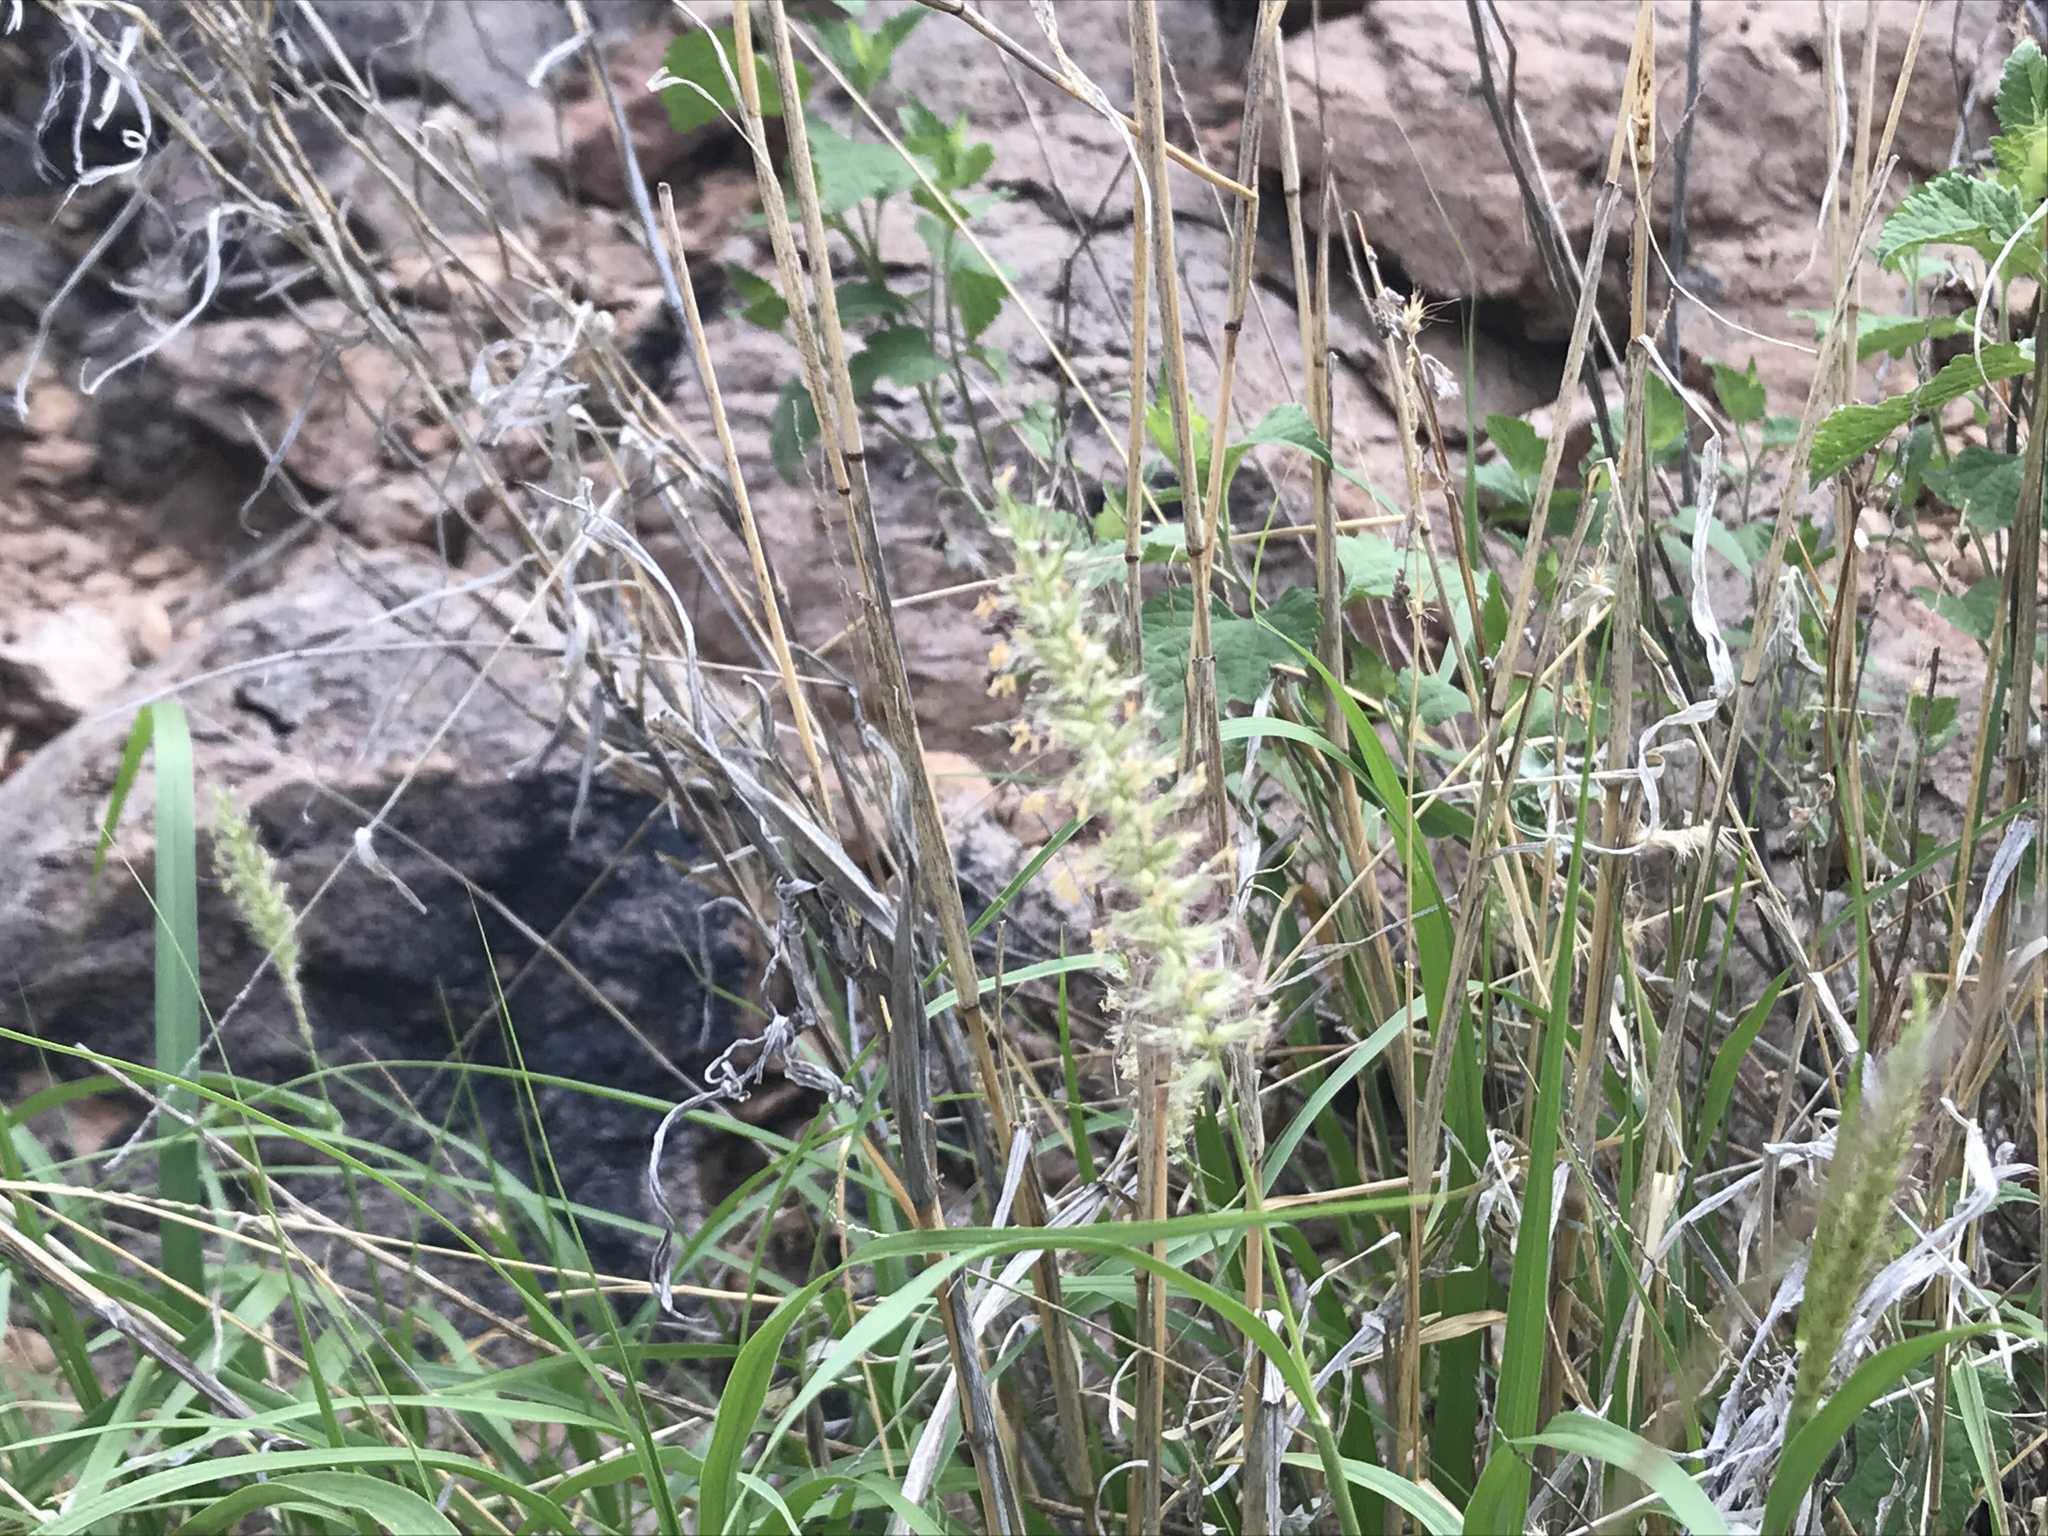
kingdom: Plantae
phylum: Tracheophyta
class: Liliopsida
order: Poales
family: Poaceae
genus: Cenchrus
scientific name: Cenchrus setaceus
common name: Crimson fountaingrass
